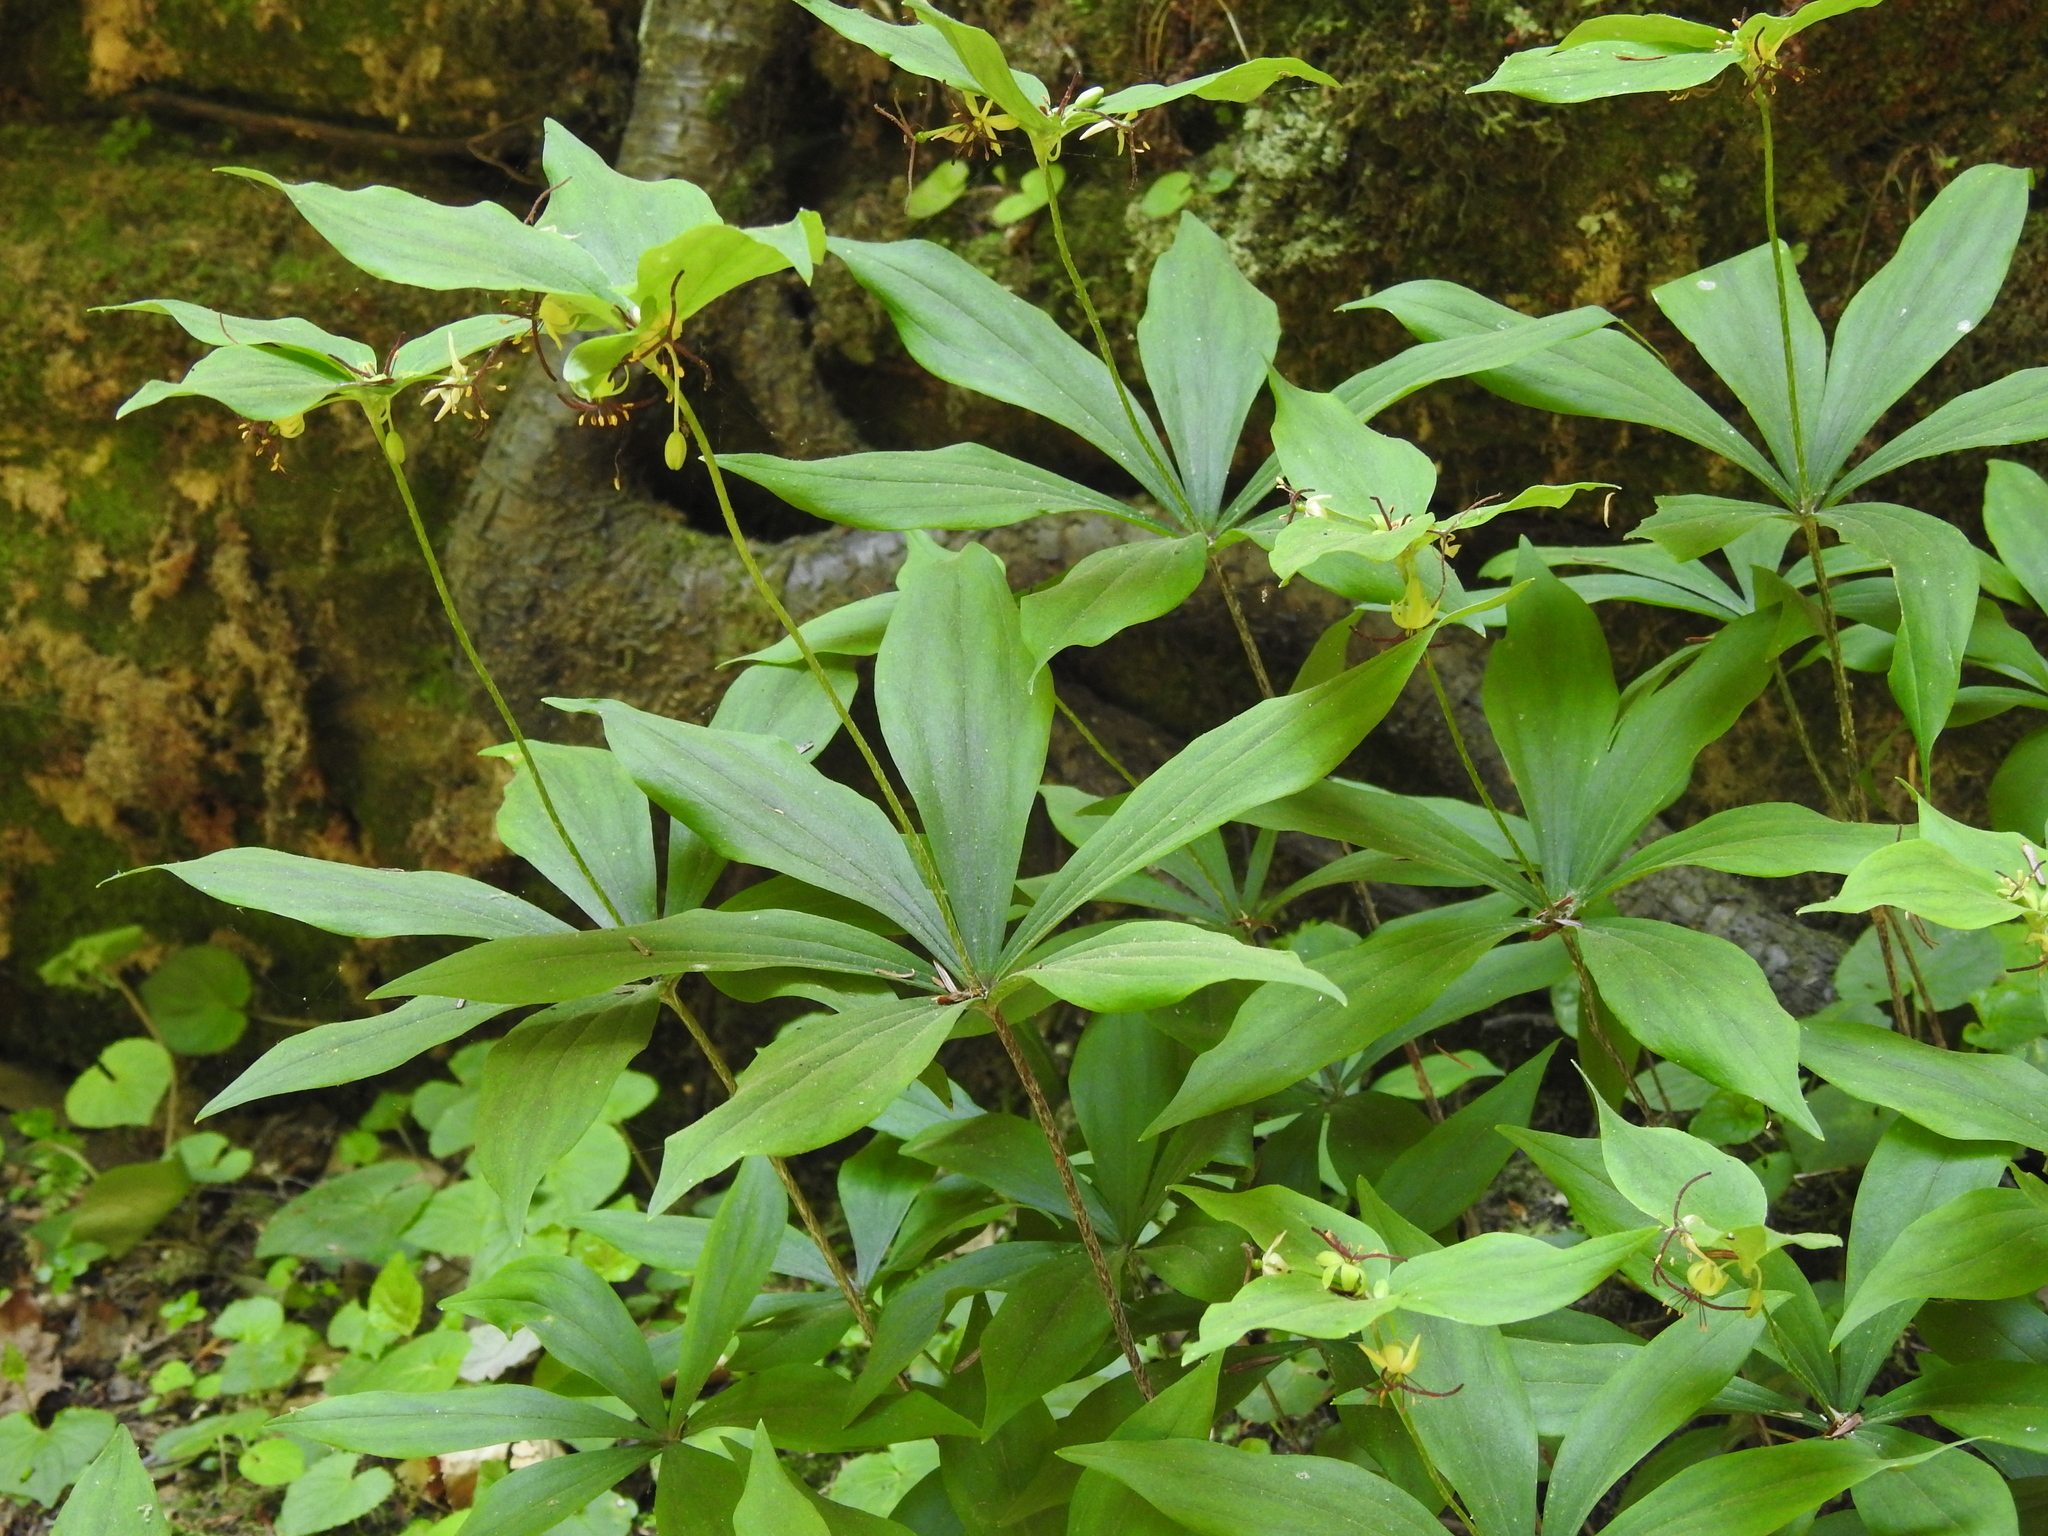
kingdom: Plantae
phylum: Tracheophyta
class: Liliopsida
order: Liliales
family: Liliaceae
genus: Medeola
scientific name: Medeola virginiana
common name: Indian cucumber-root
